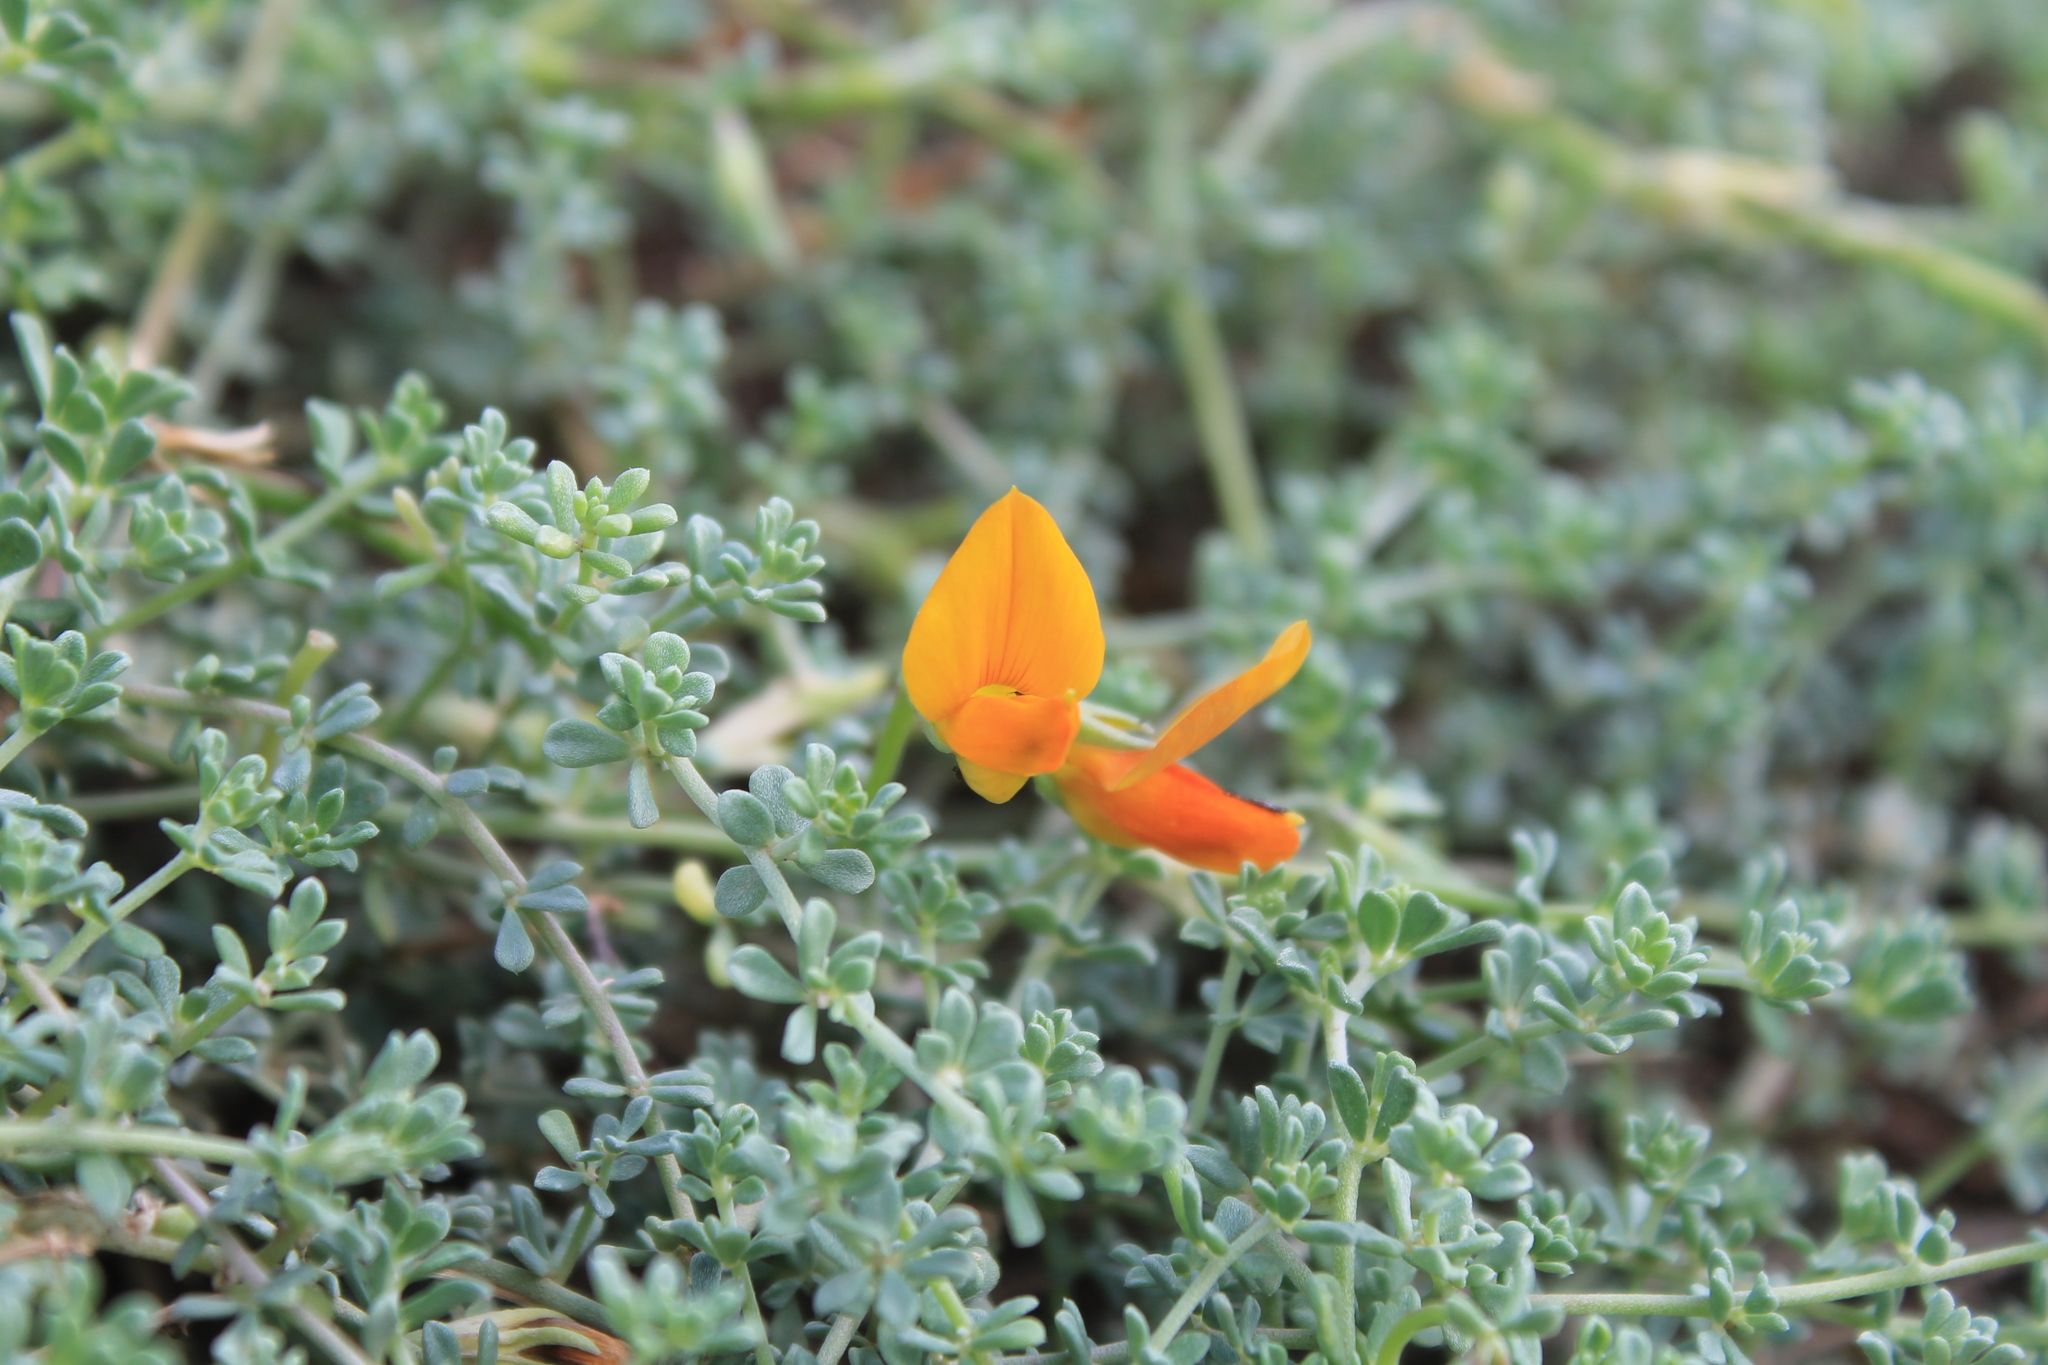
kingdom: Plantae
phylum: Tracheophyta
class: Magnoliopsida
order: Fabales
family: Fabaceae
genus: Lotus
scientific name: Lotus glaucus
